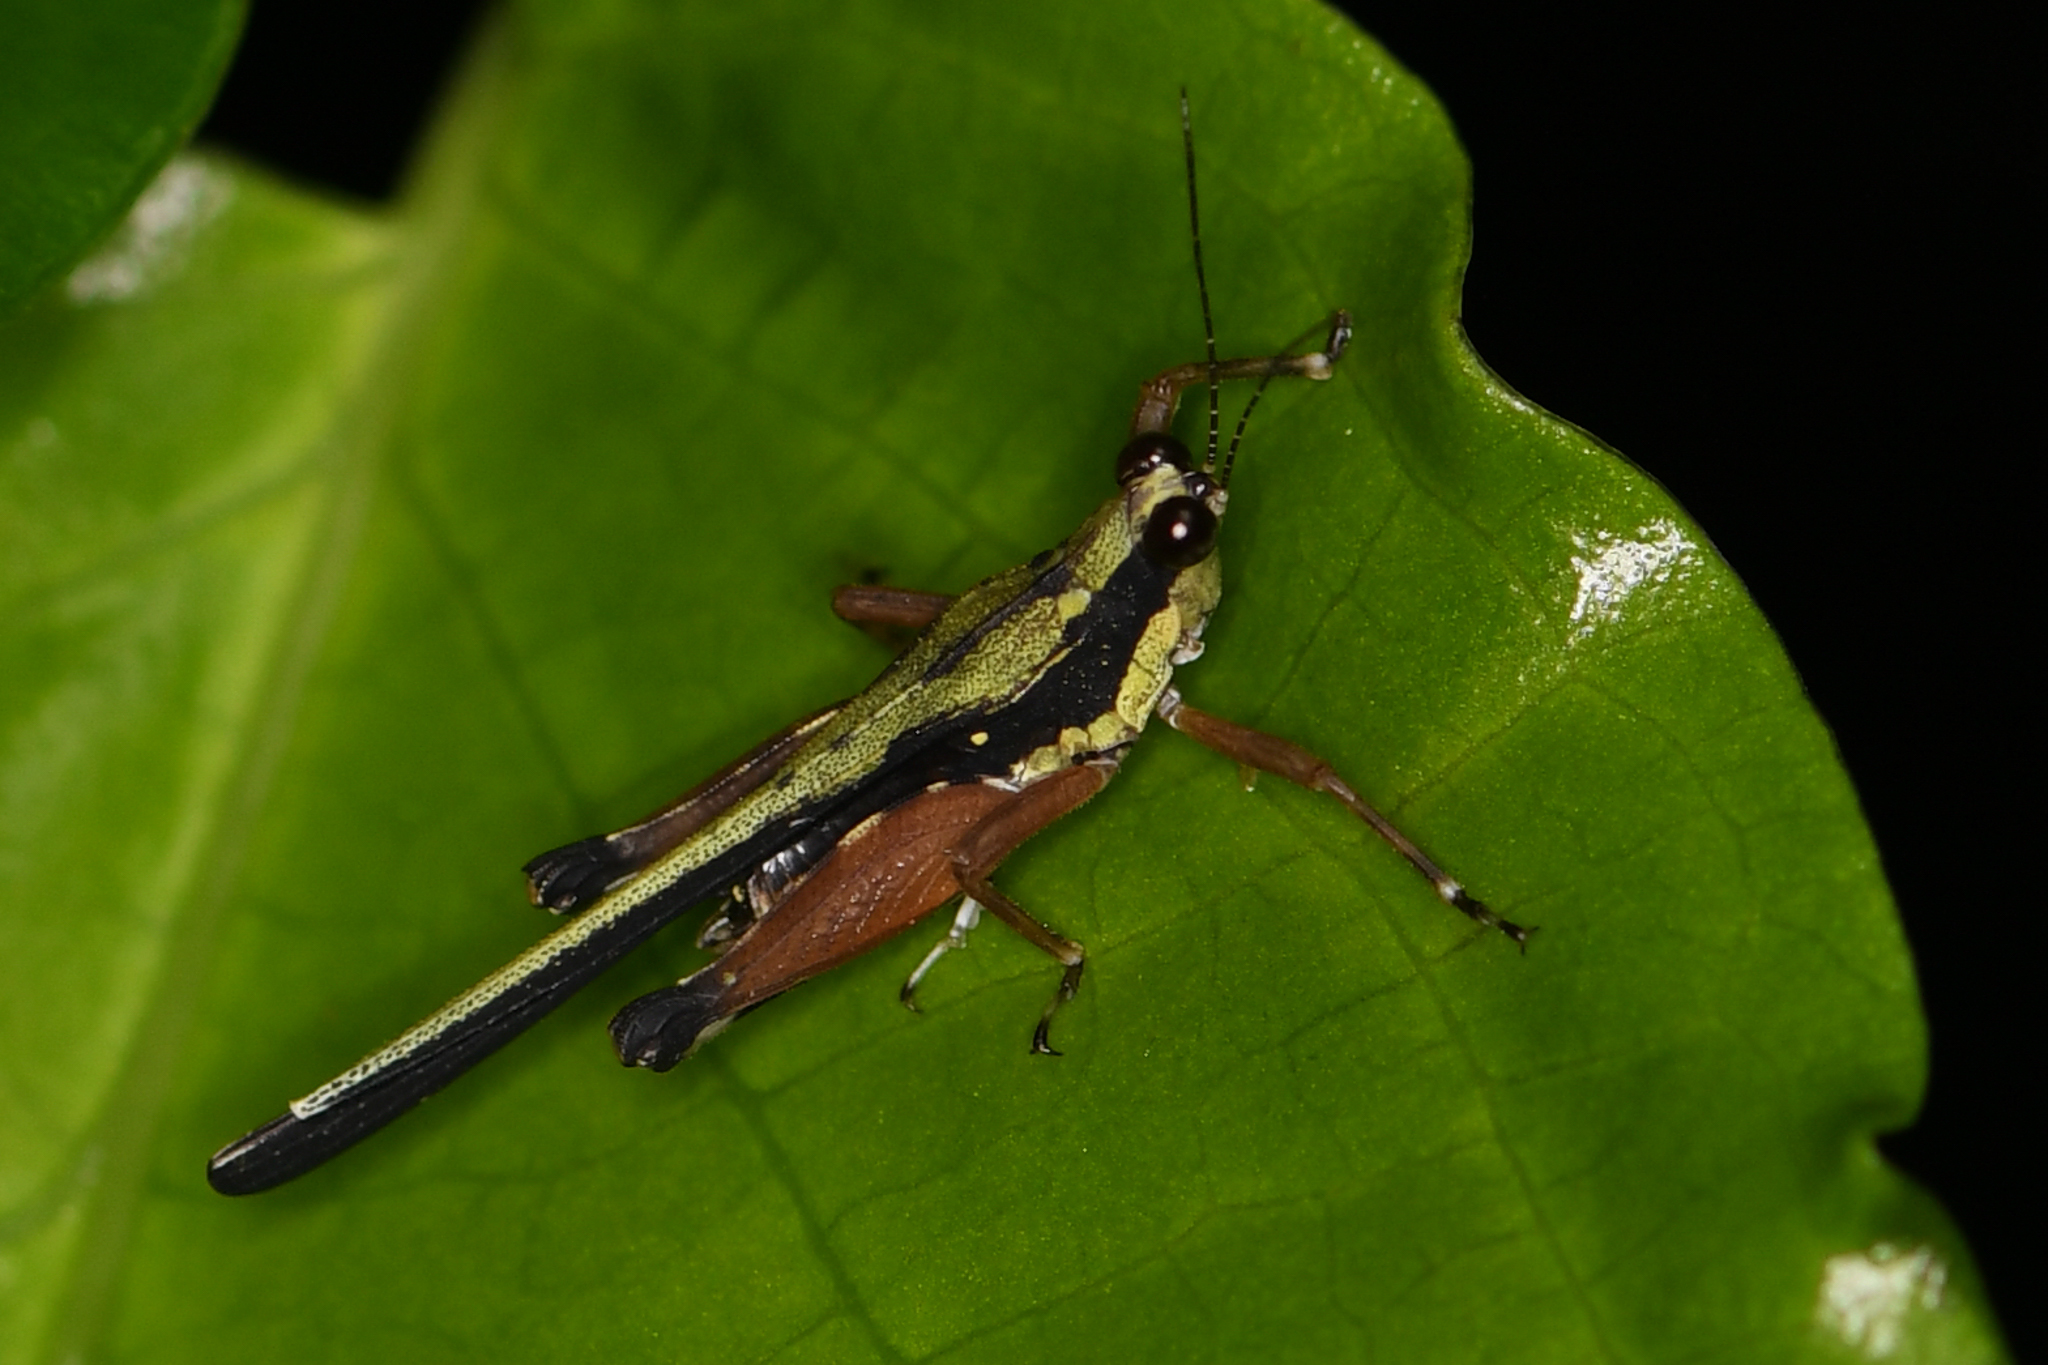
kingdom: Animalia
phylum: Arthropoda
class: Insecta
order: Orthoptera
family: Tetrigidae
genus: Scaria
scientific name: Scaria fasciata
